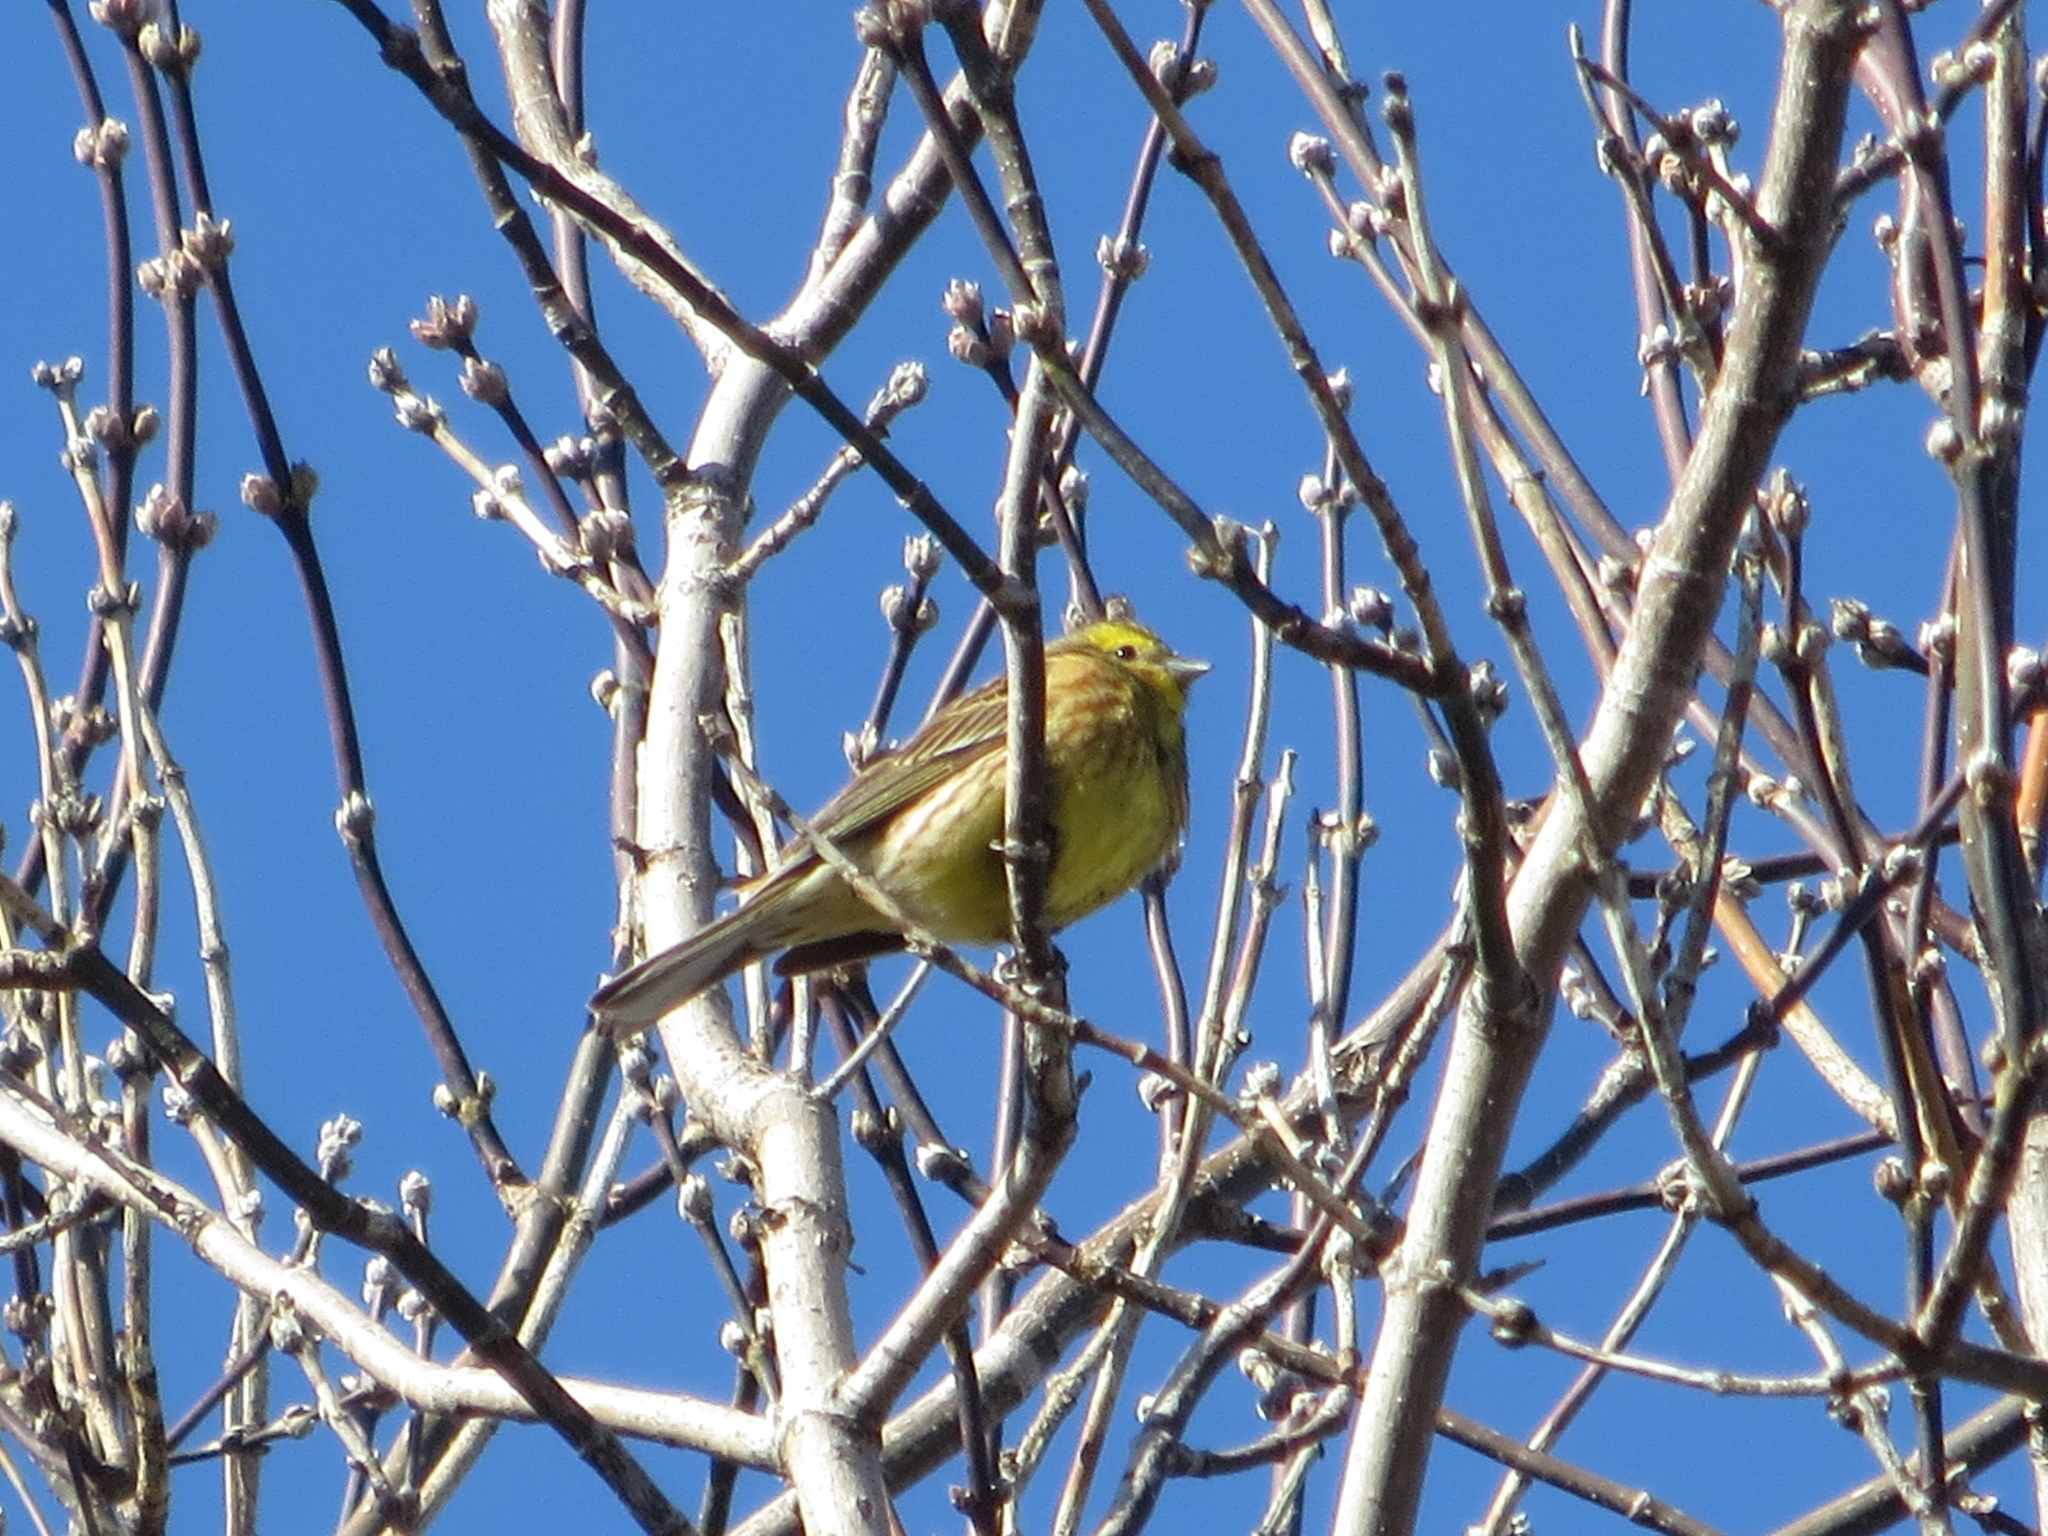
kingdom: Animalia
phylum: Chordata
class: Aves
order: Passeriformes
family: Emberizidae
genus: Emberiza
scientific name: Emberiza citrinella
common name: Yellowhammer
